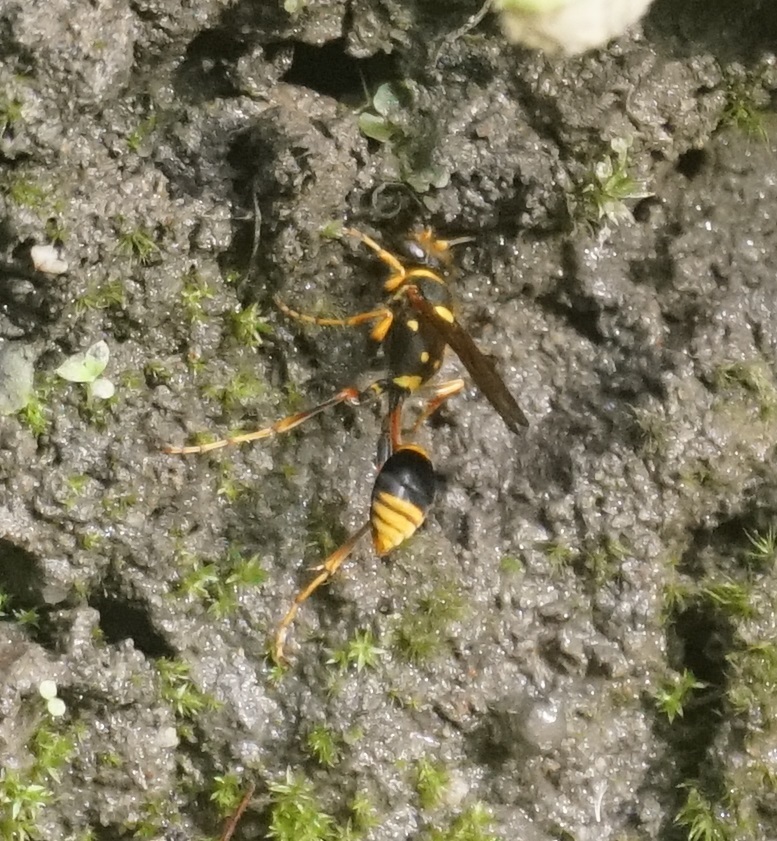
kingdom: Animalia
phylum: Arthropoda
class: Insecta
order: Hymenoptera
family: Sphecidae
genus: Sceliphron
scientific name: Sceliphron formosum
